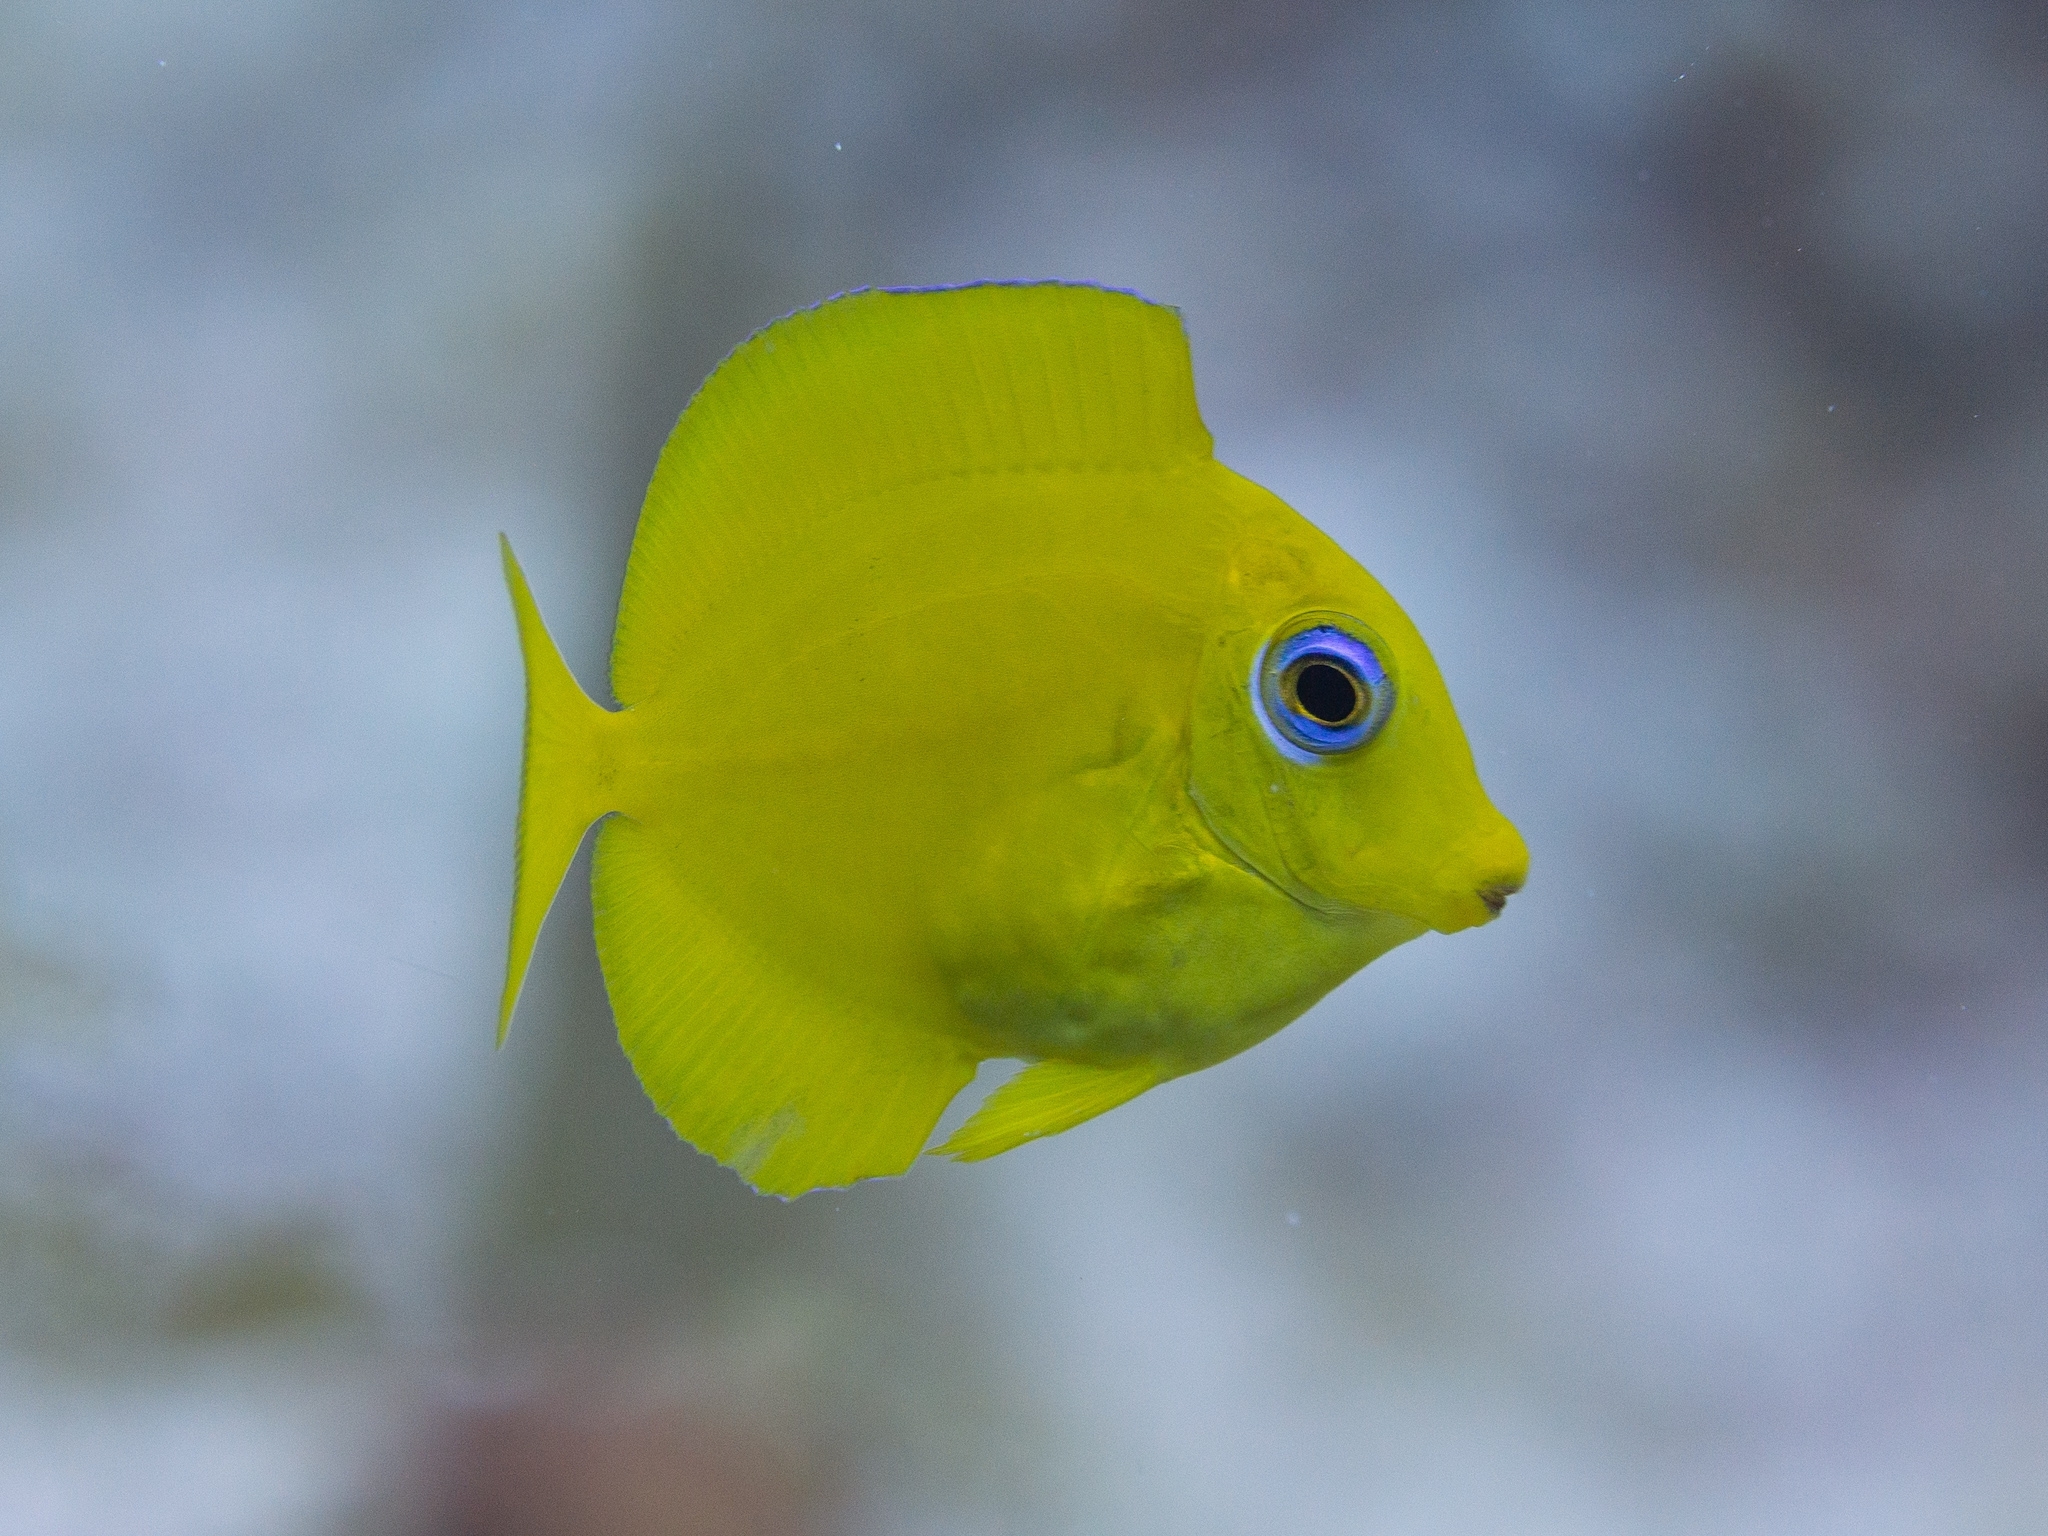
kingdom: Animalia
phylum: Chordata
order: Perciformes
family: Acanthuridae
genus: Acanthurus
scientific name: Acanthurus coeruleus
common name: Blue tang
